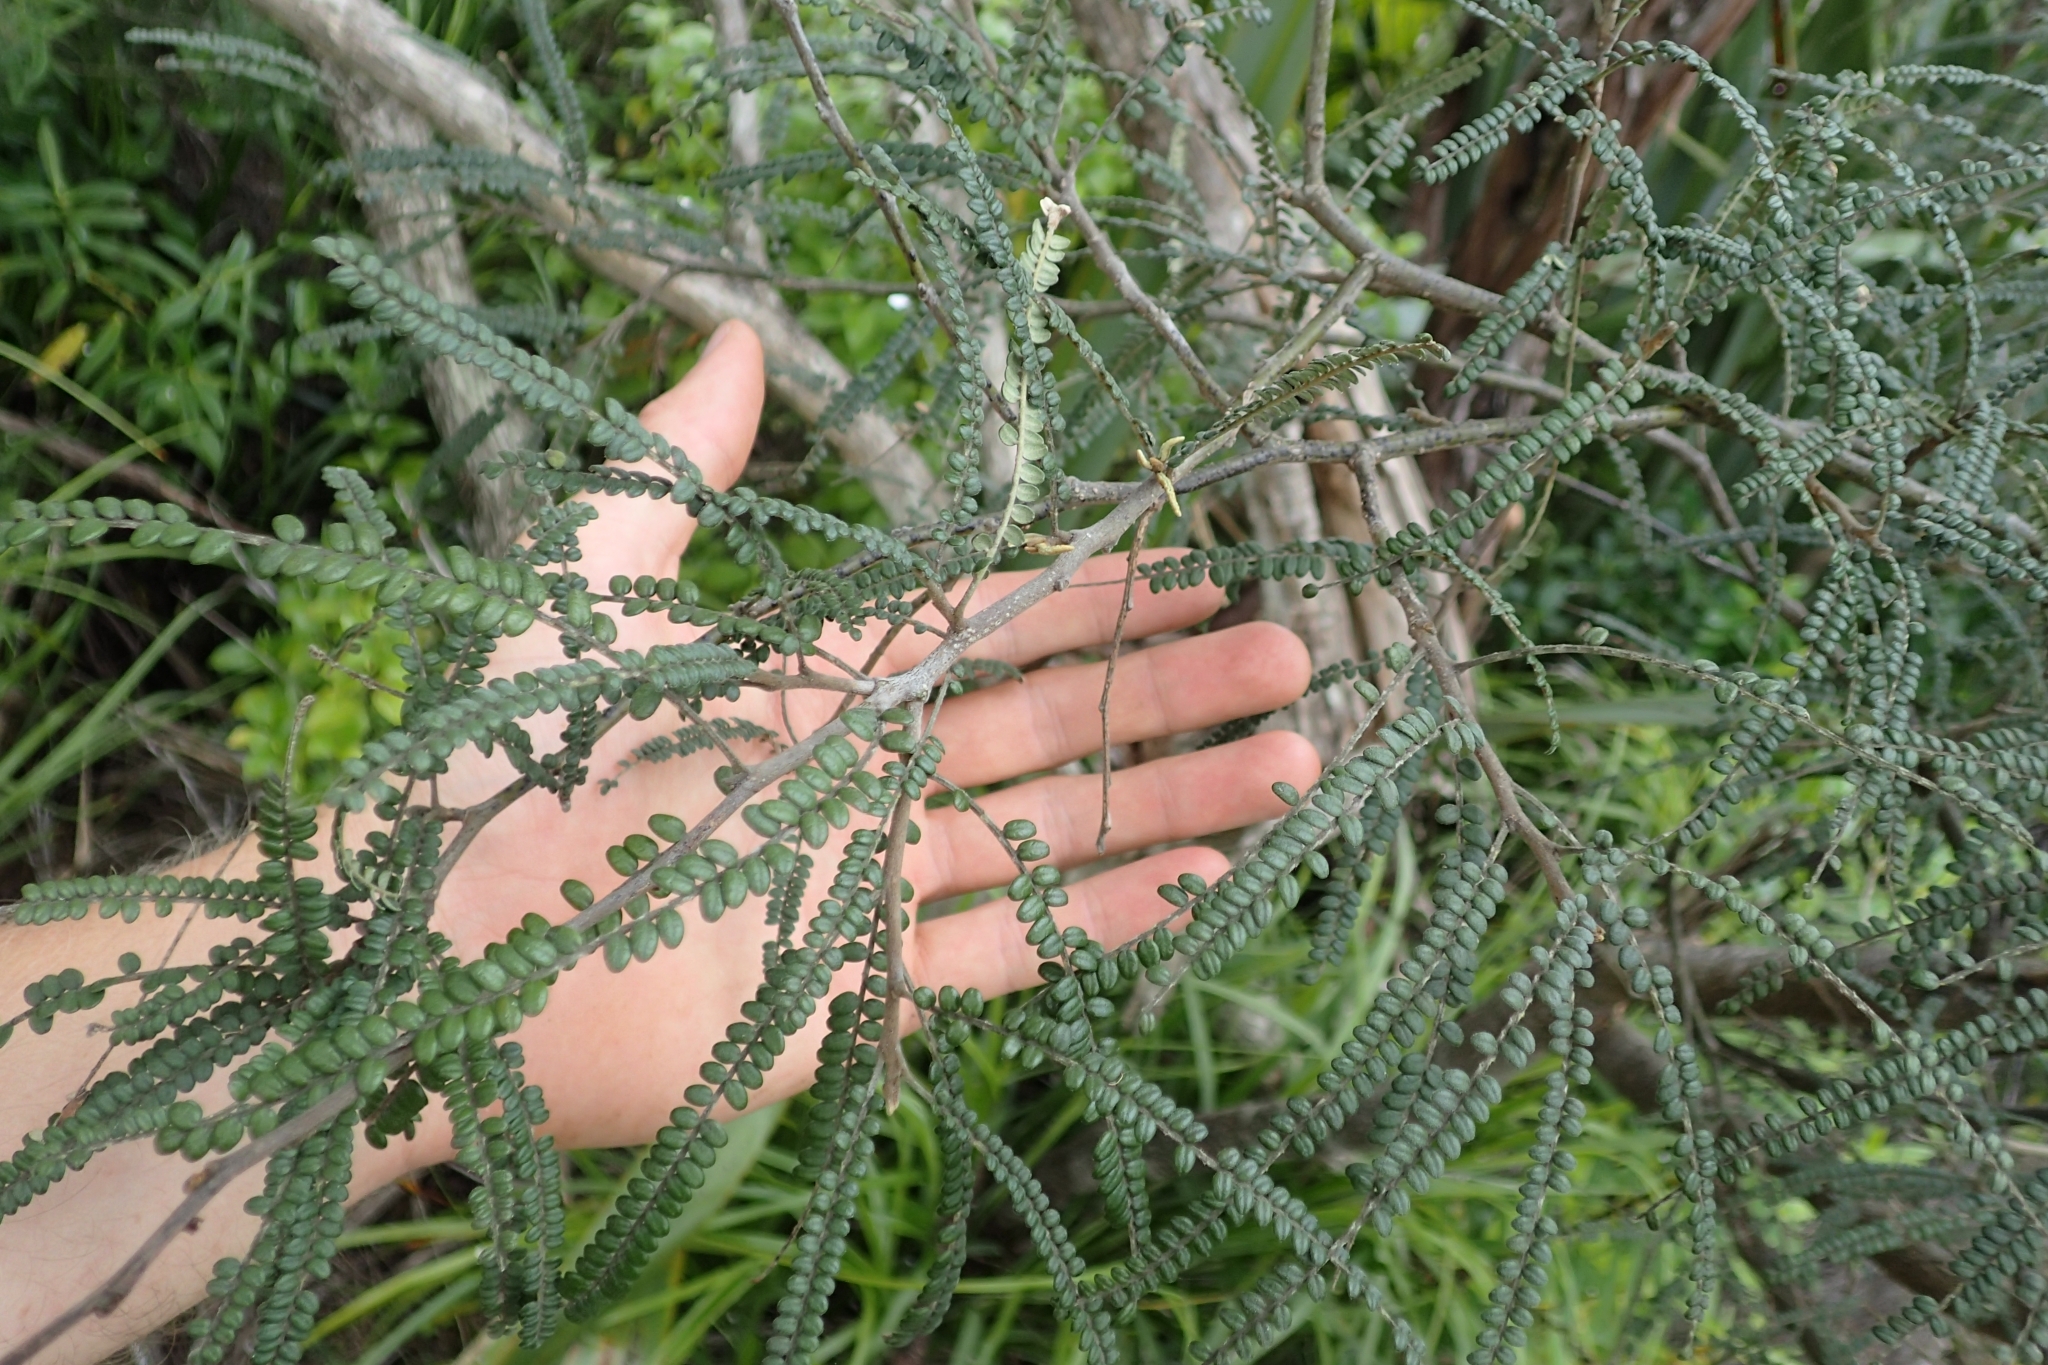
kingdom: Plantae
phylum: Tracheophyta
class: Magnoliopsida
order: Fabales
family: Fabaceae
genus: Sophora
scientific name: Sophora fulvida
